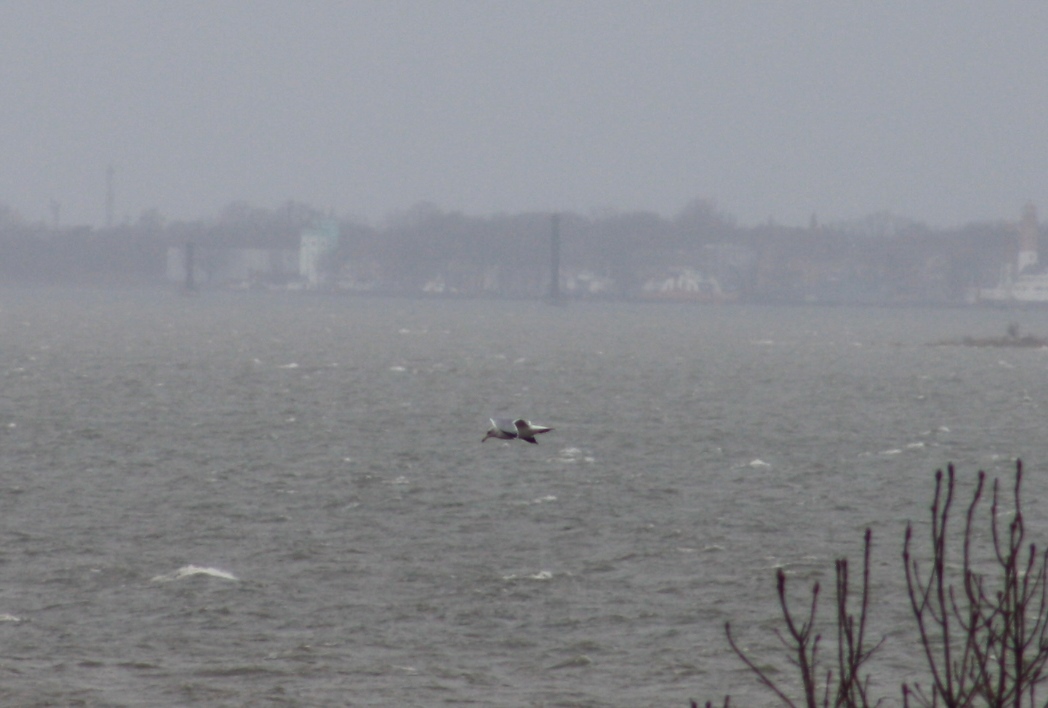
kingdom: Animalia
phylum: Chordata
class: Aves
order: Charadriiformes
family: Laridae
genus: Larus
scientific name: Larus argentatus
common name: Herring gull
